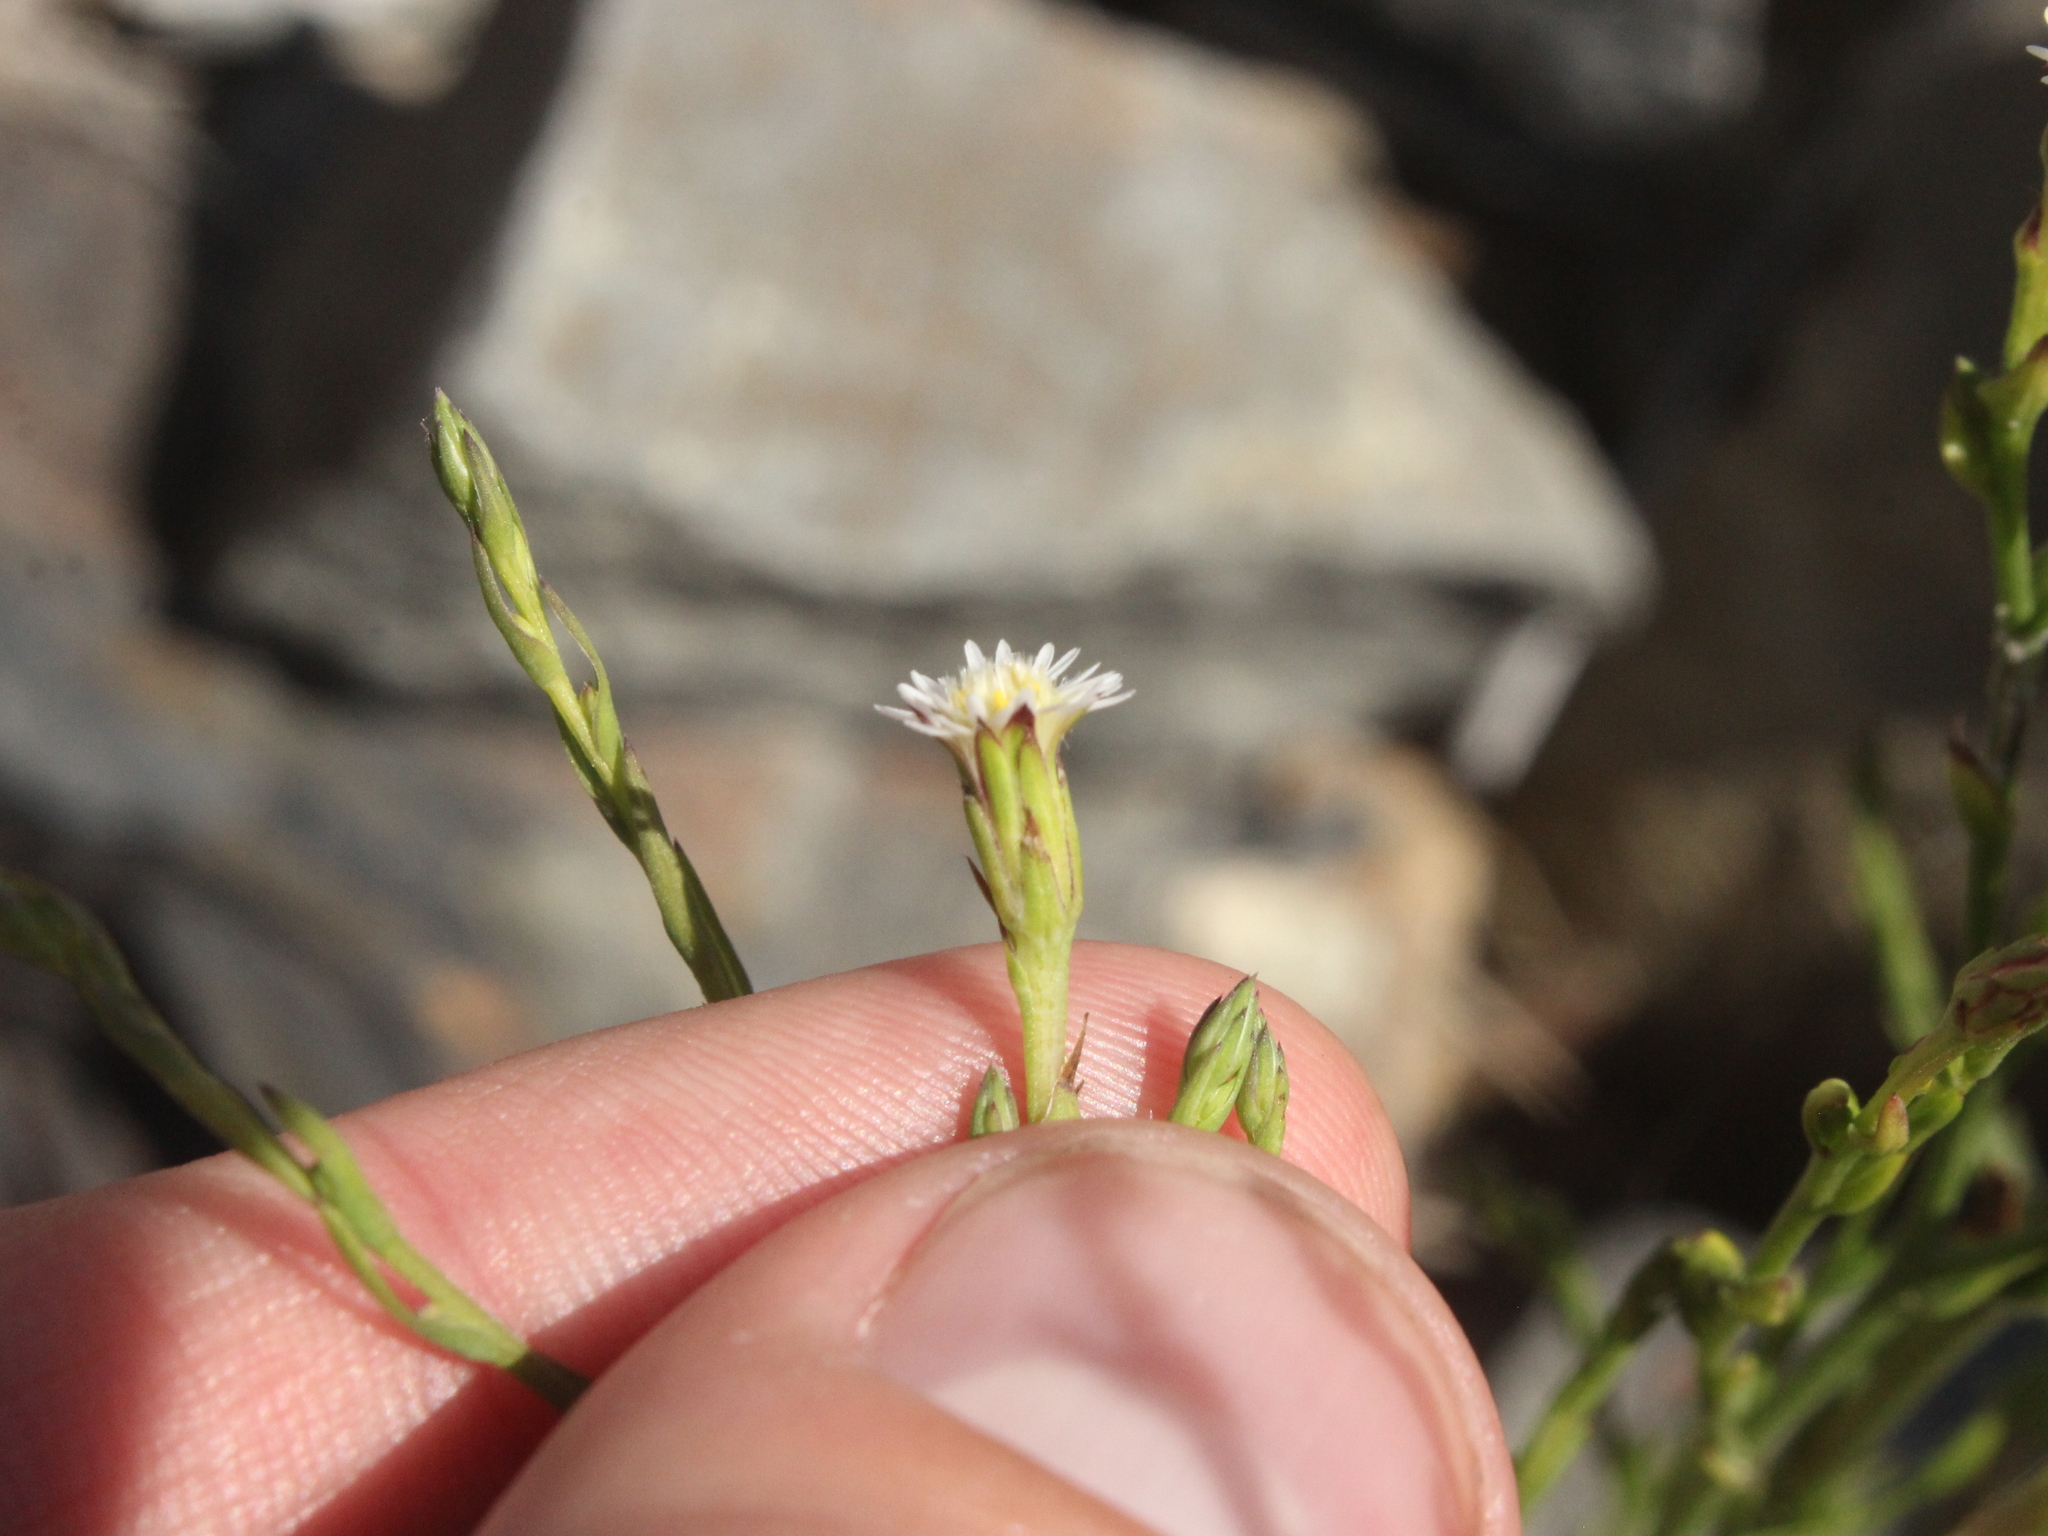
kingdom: Plantae
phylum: Tracheophyta
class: Magnoliopsida
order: Asterales
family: Asteraceae
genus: Symphyotrichum
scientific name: Symphyotrichum subulatum
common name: Annual saltmarsh aster
